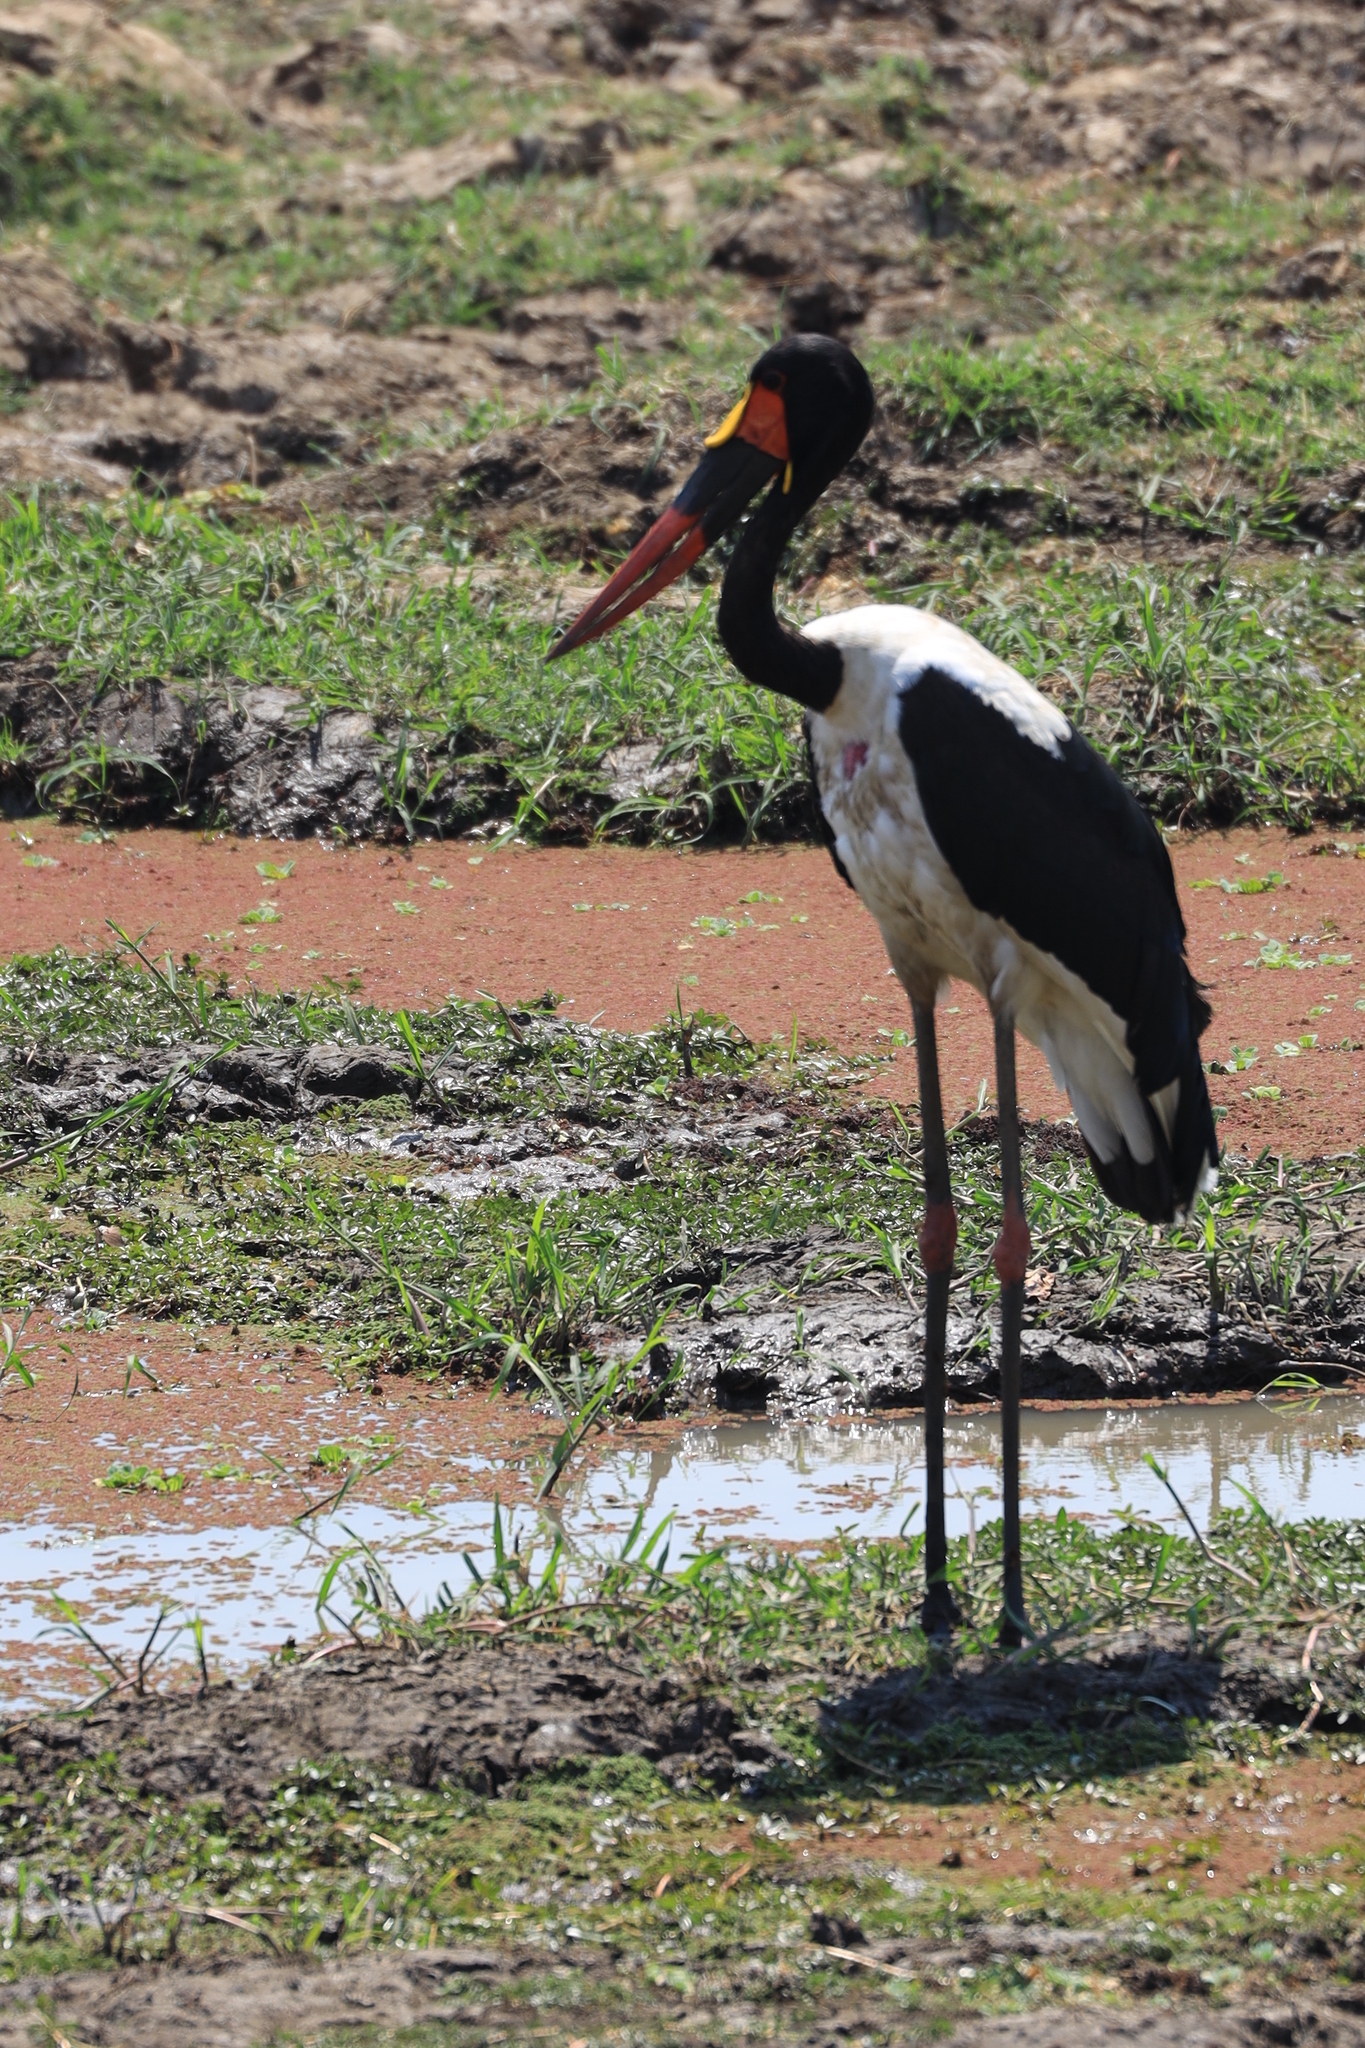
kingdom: Animalia
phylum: Chordata
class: Aves
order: Ciconiiformes
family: Ciconiidae
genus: Ephippiorhynchus
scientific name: Ephippiorhynchus senegalensis
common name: Saddle-billed stork
